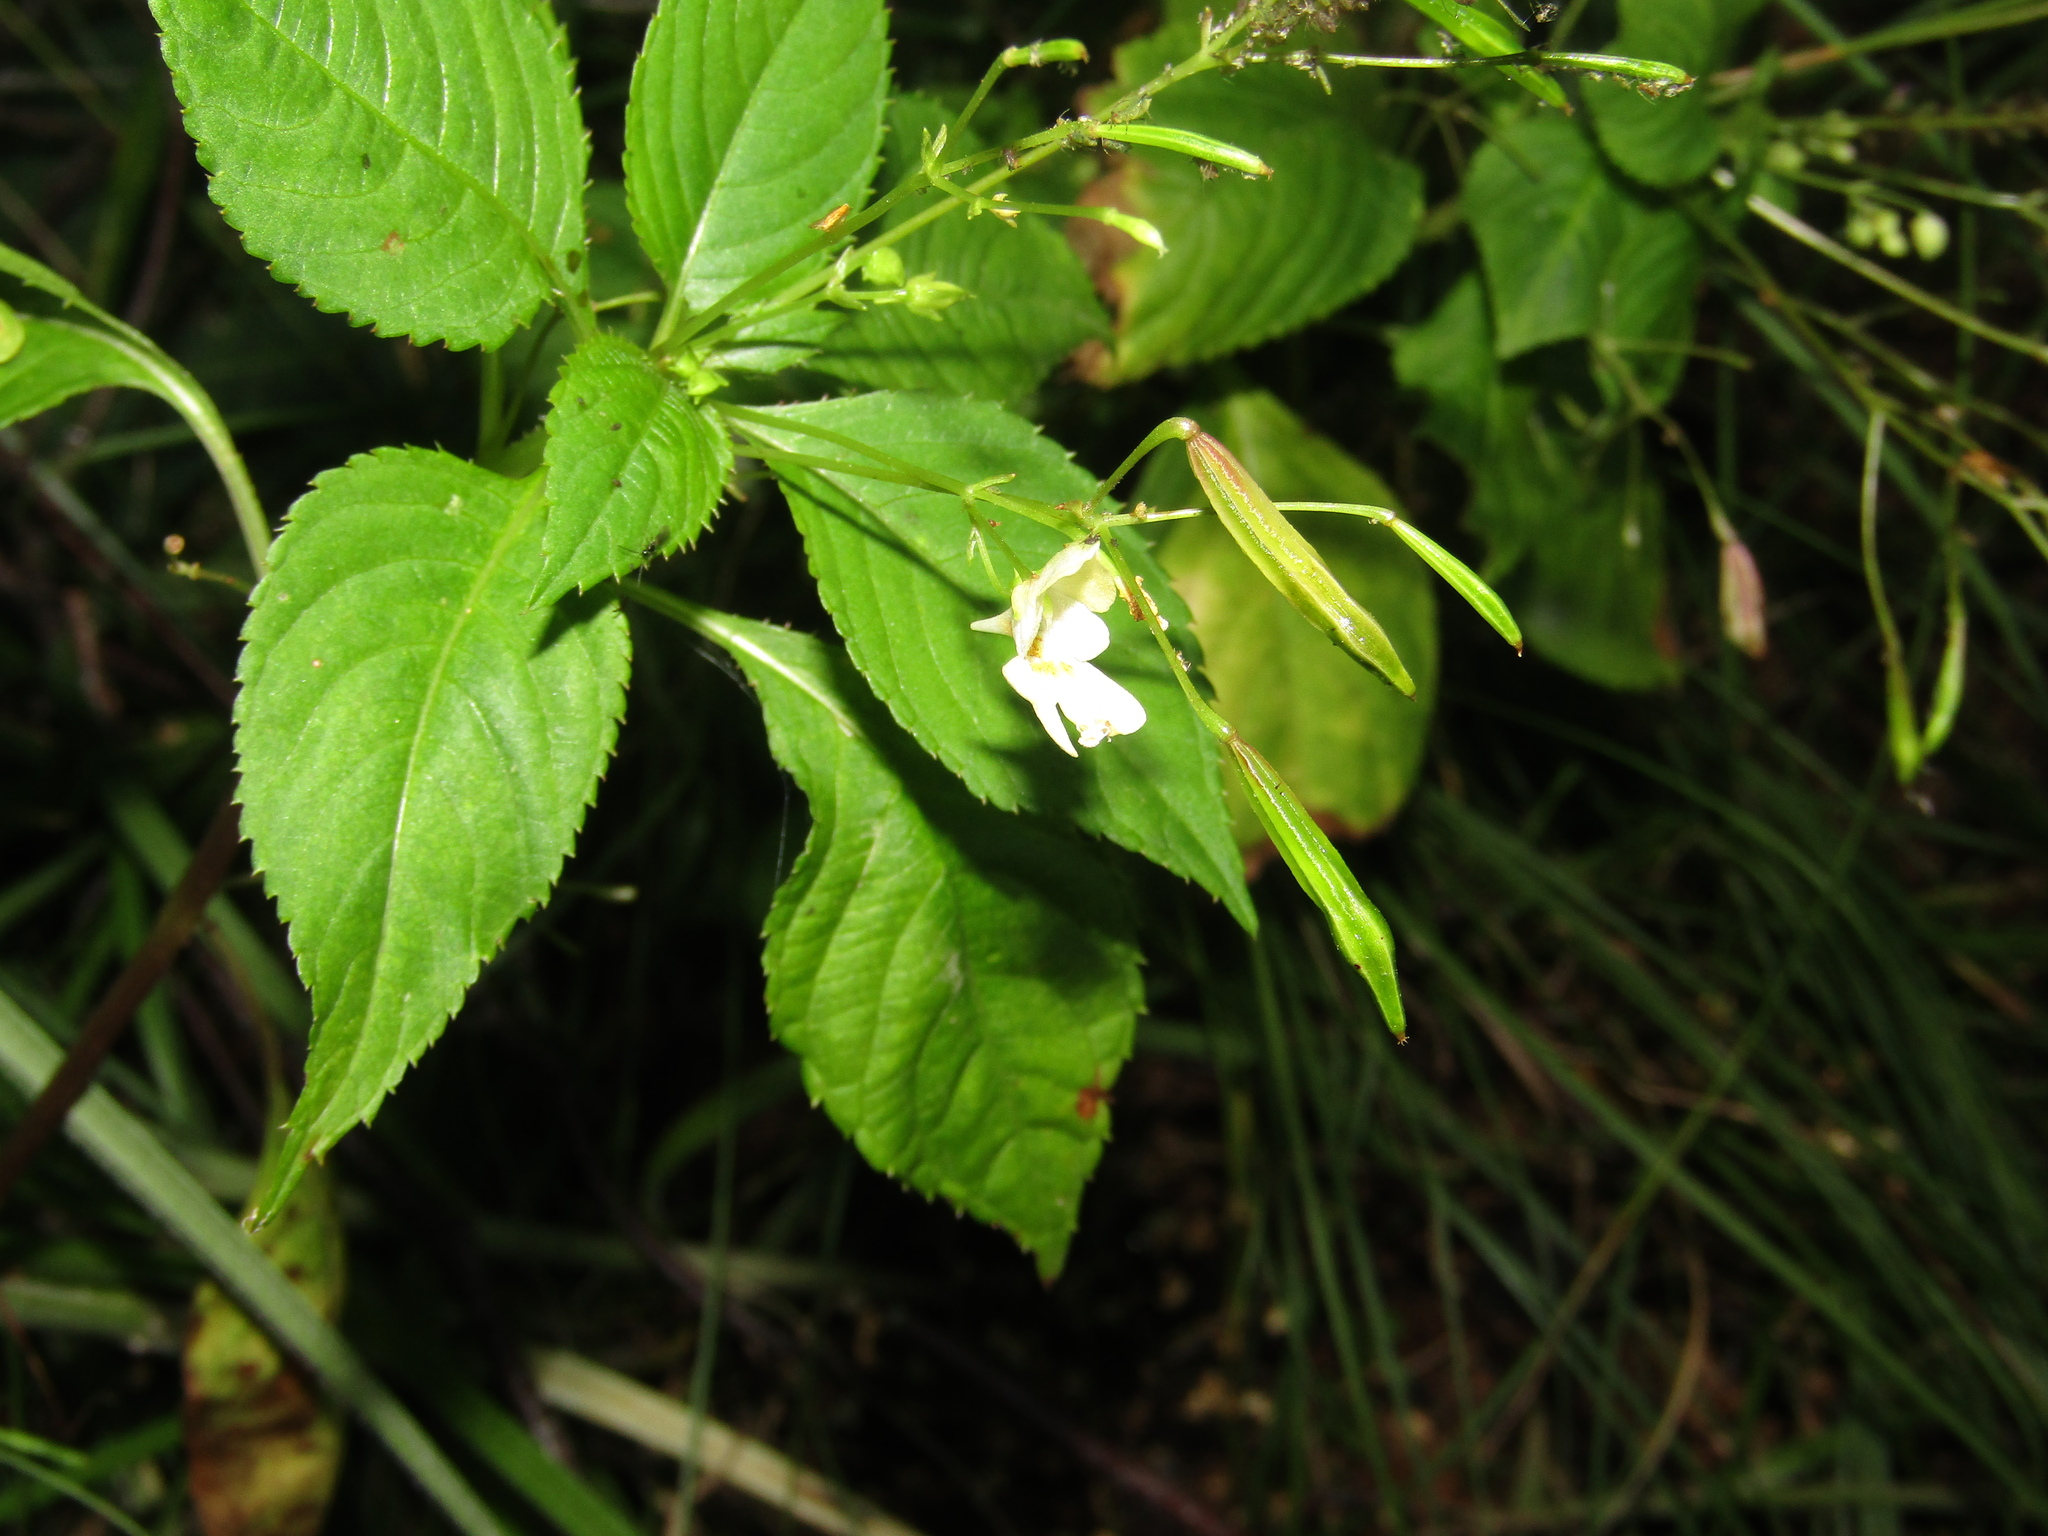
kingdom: Plantae
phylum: Tracheophyta
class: Magnoliopsida
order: Ericales
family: Balsaminaceae
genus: Impatiens
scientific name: Impatiens parviflora
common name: Small balsam
